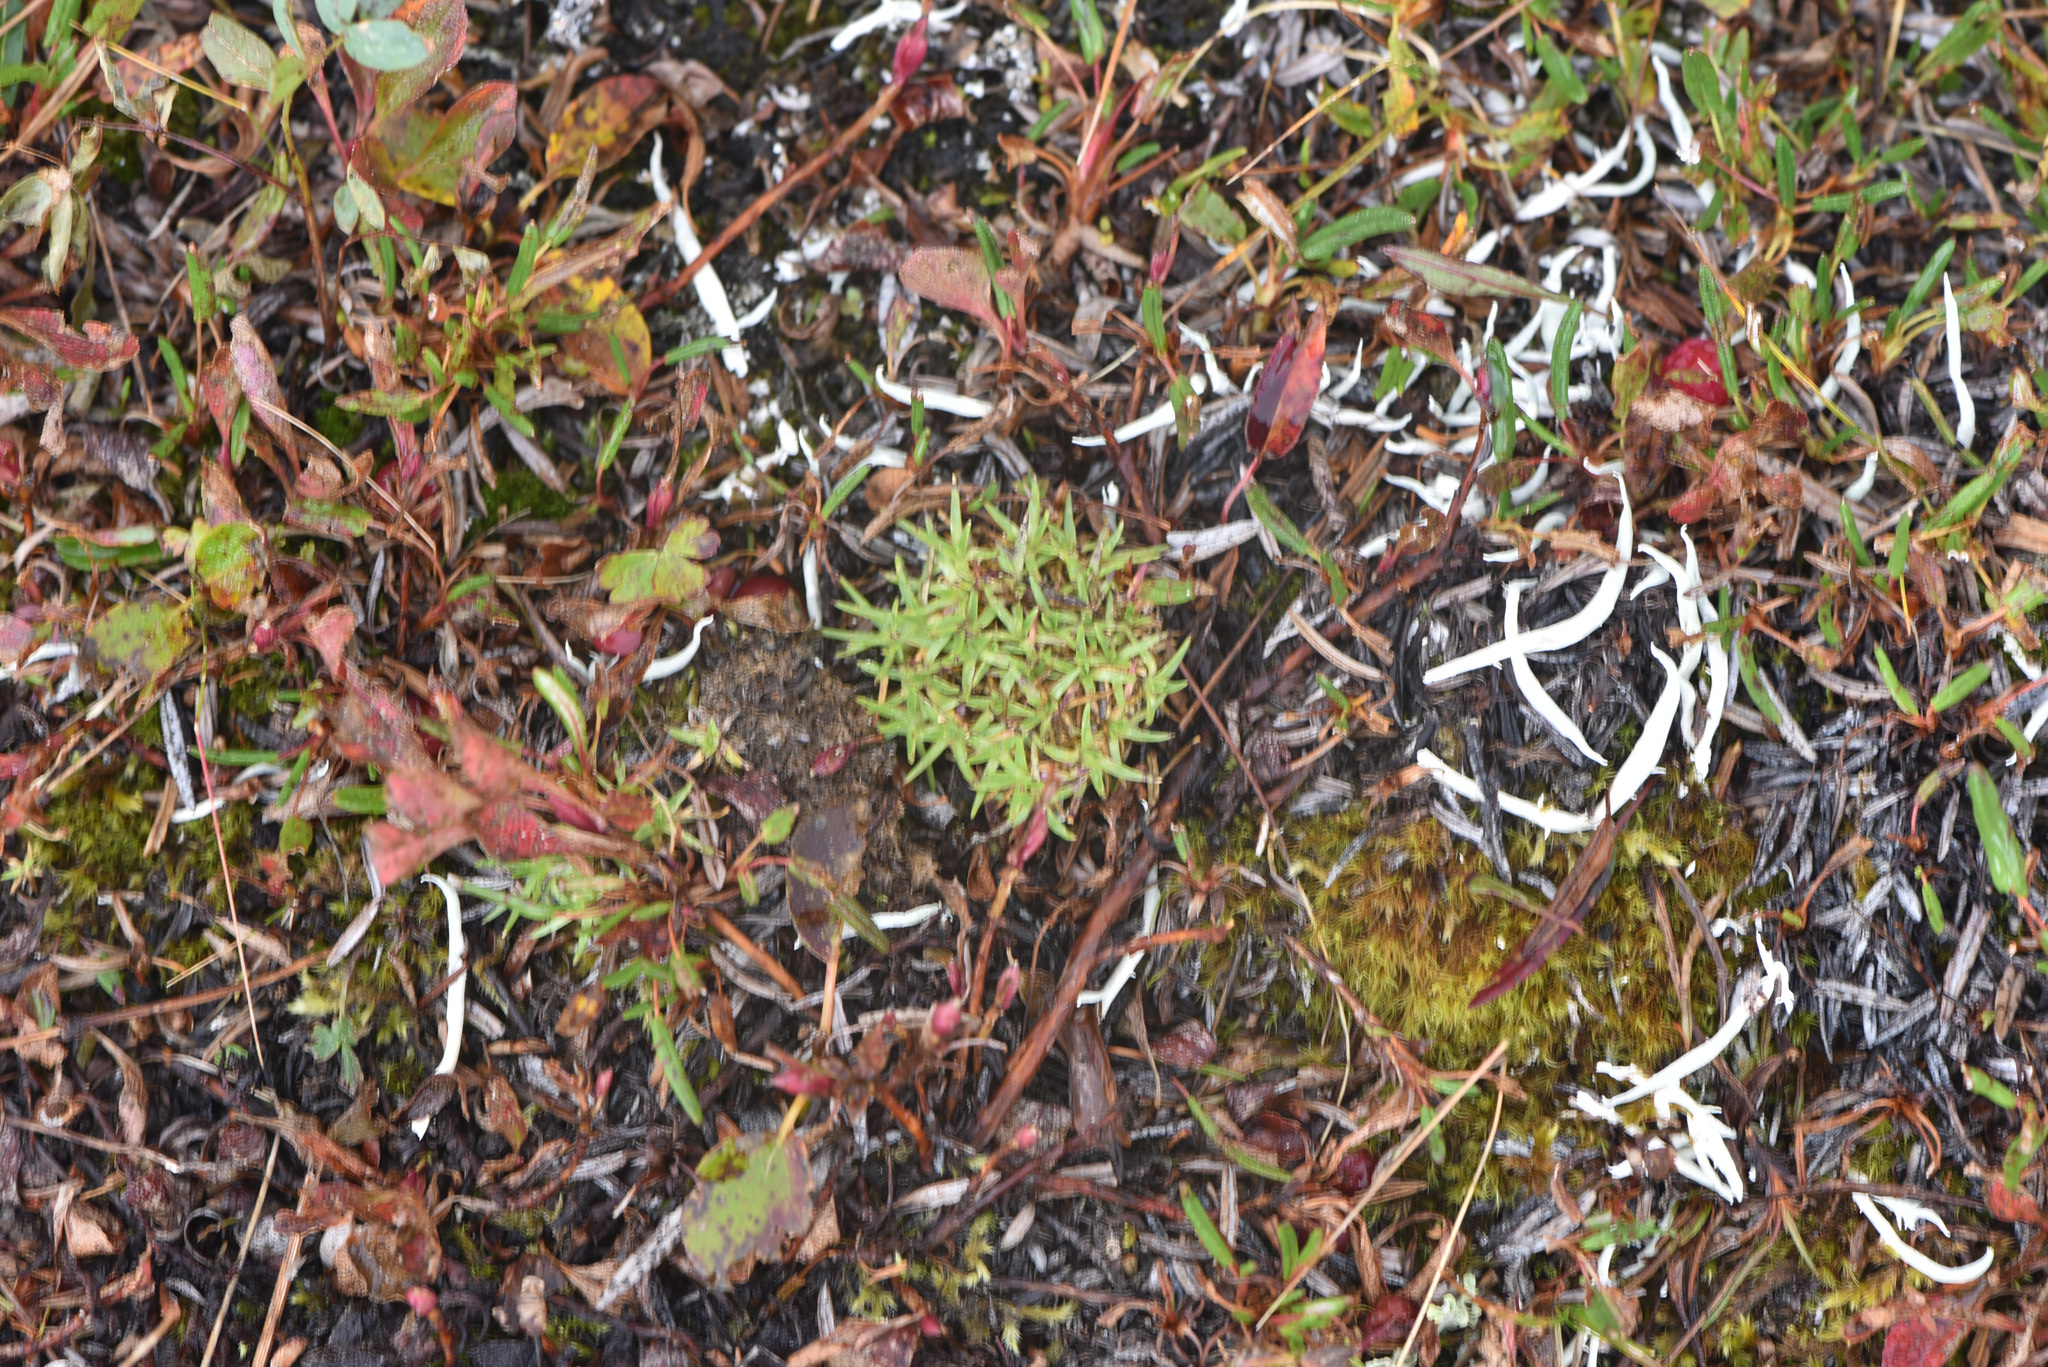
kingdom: Plantae
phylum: Tracheophyta
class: Magnoliopsida
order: Caryophyllales
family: Caryophyllaceae
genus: Silene
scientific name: Silene acaulis
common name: Moss campion
